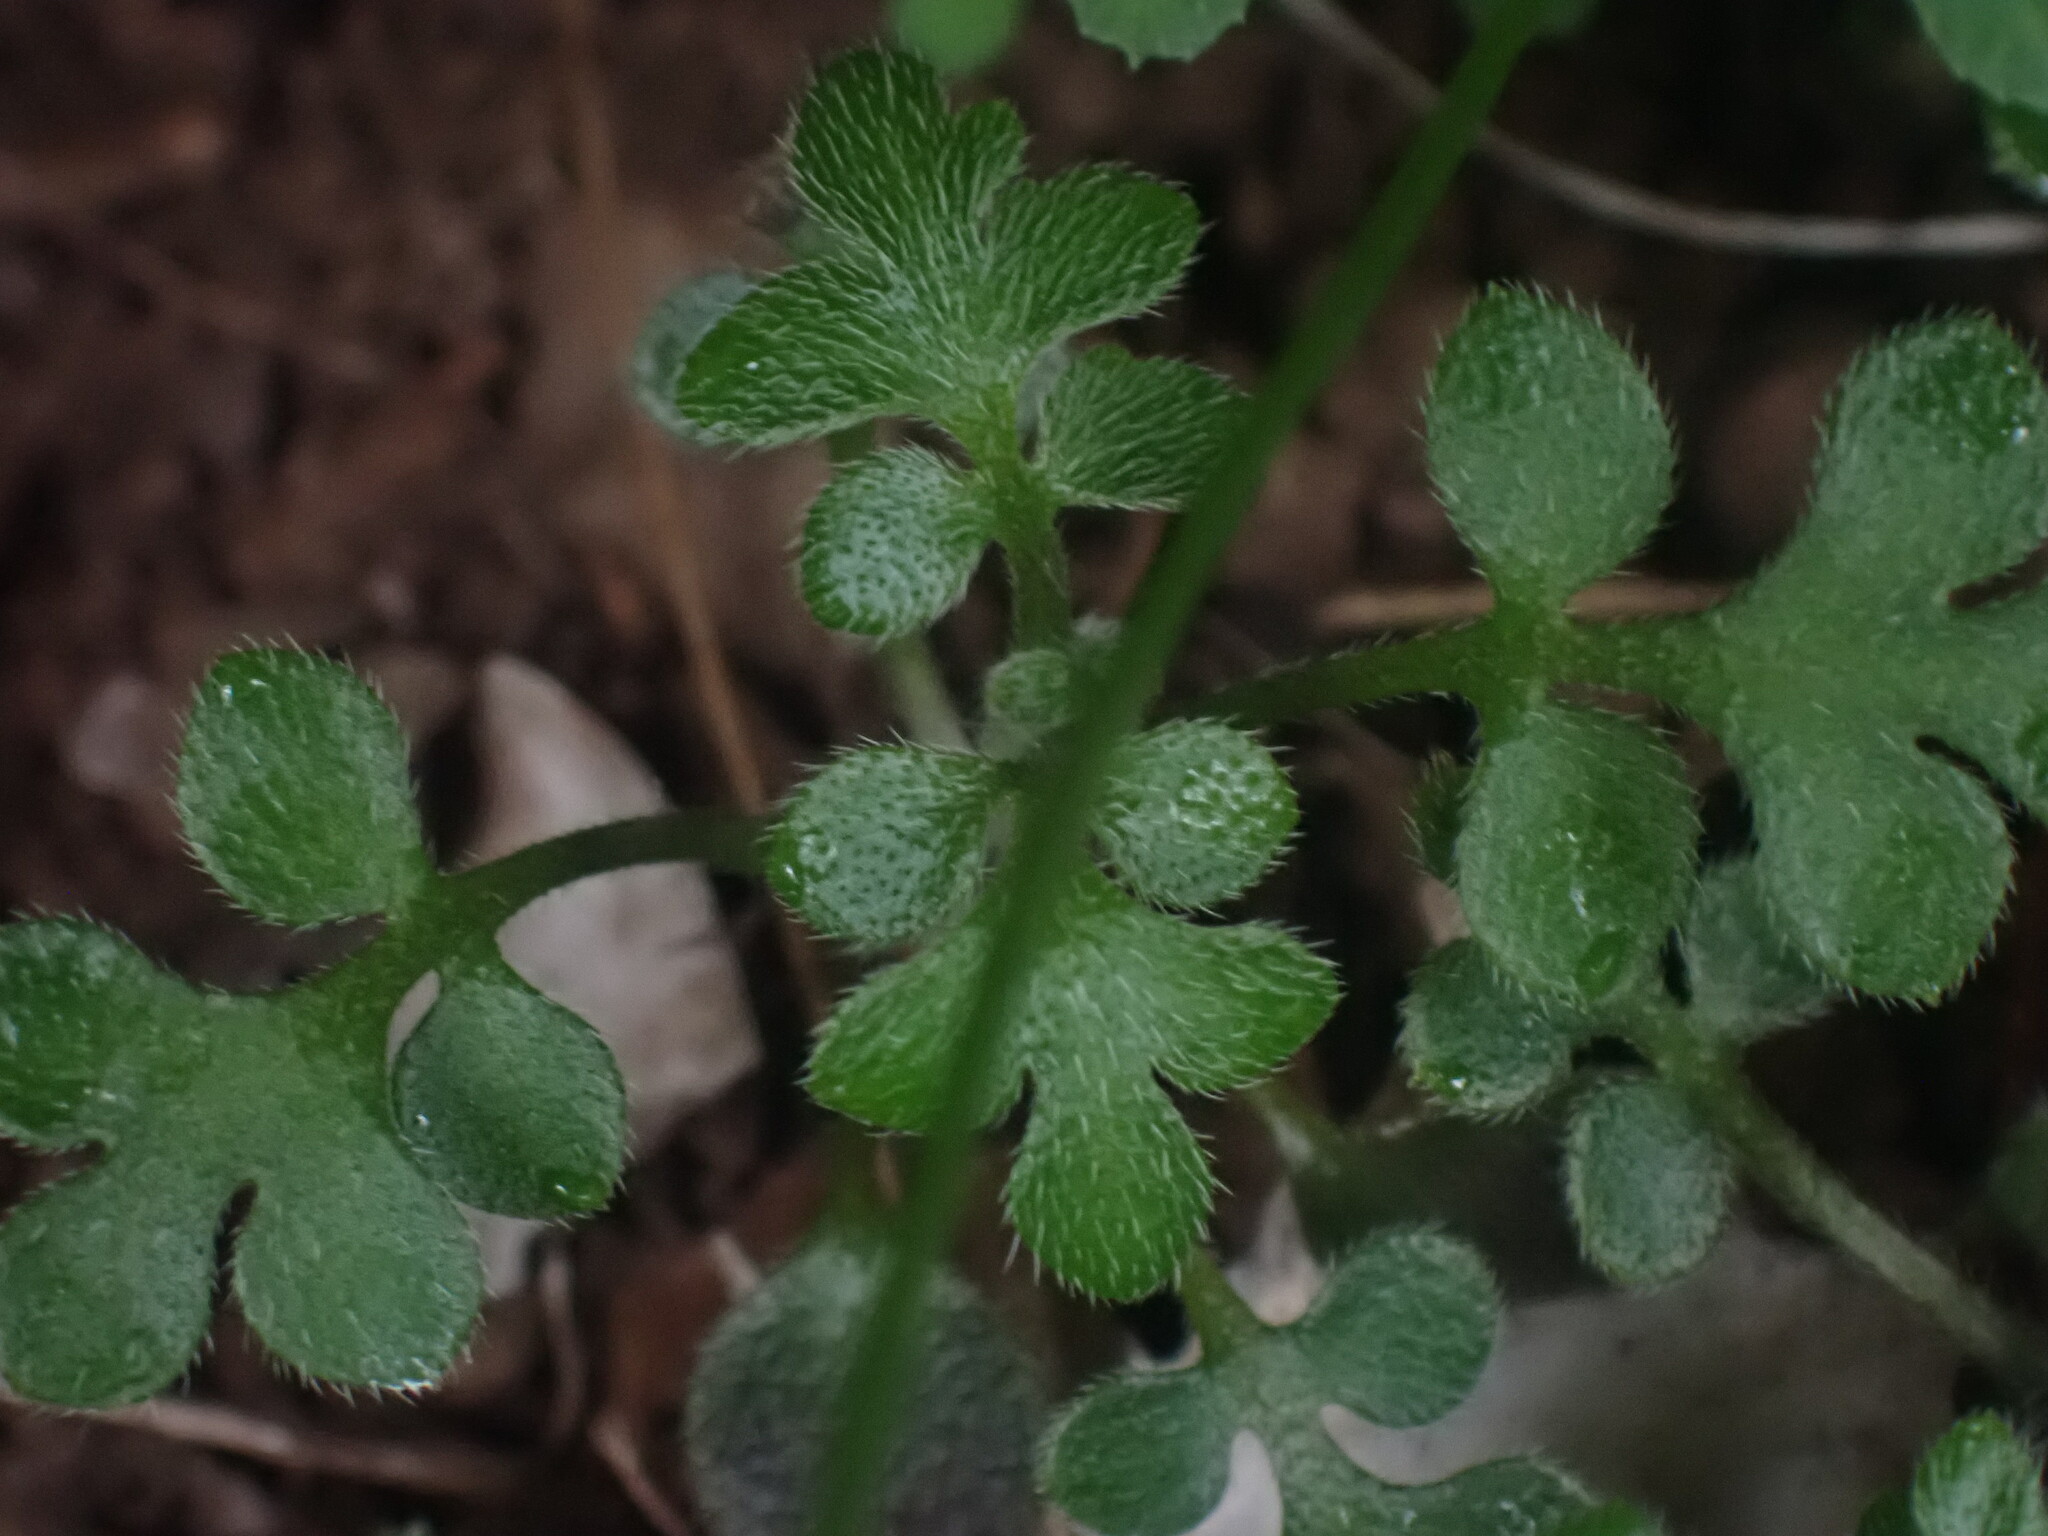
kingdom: Plantae
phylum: Tracheophyta
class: Magnoliopsida
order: Boraginales
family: Hydrophyllaceae
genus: Nemophila
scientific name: Nemophila parviflora
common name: Small-flowered baby-blue-eyes
